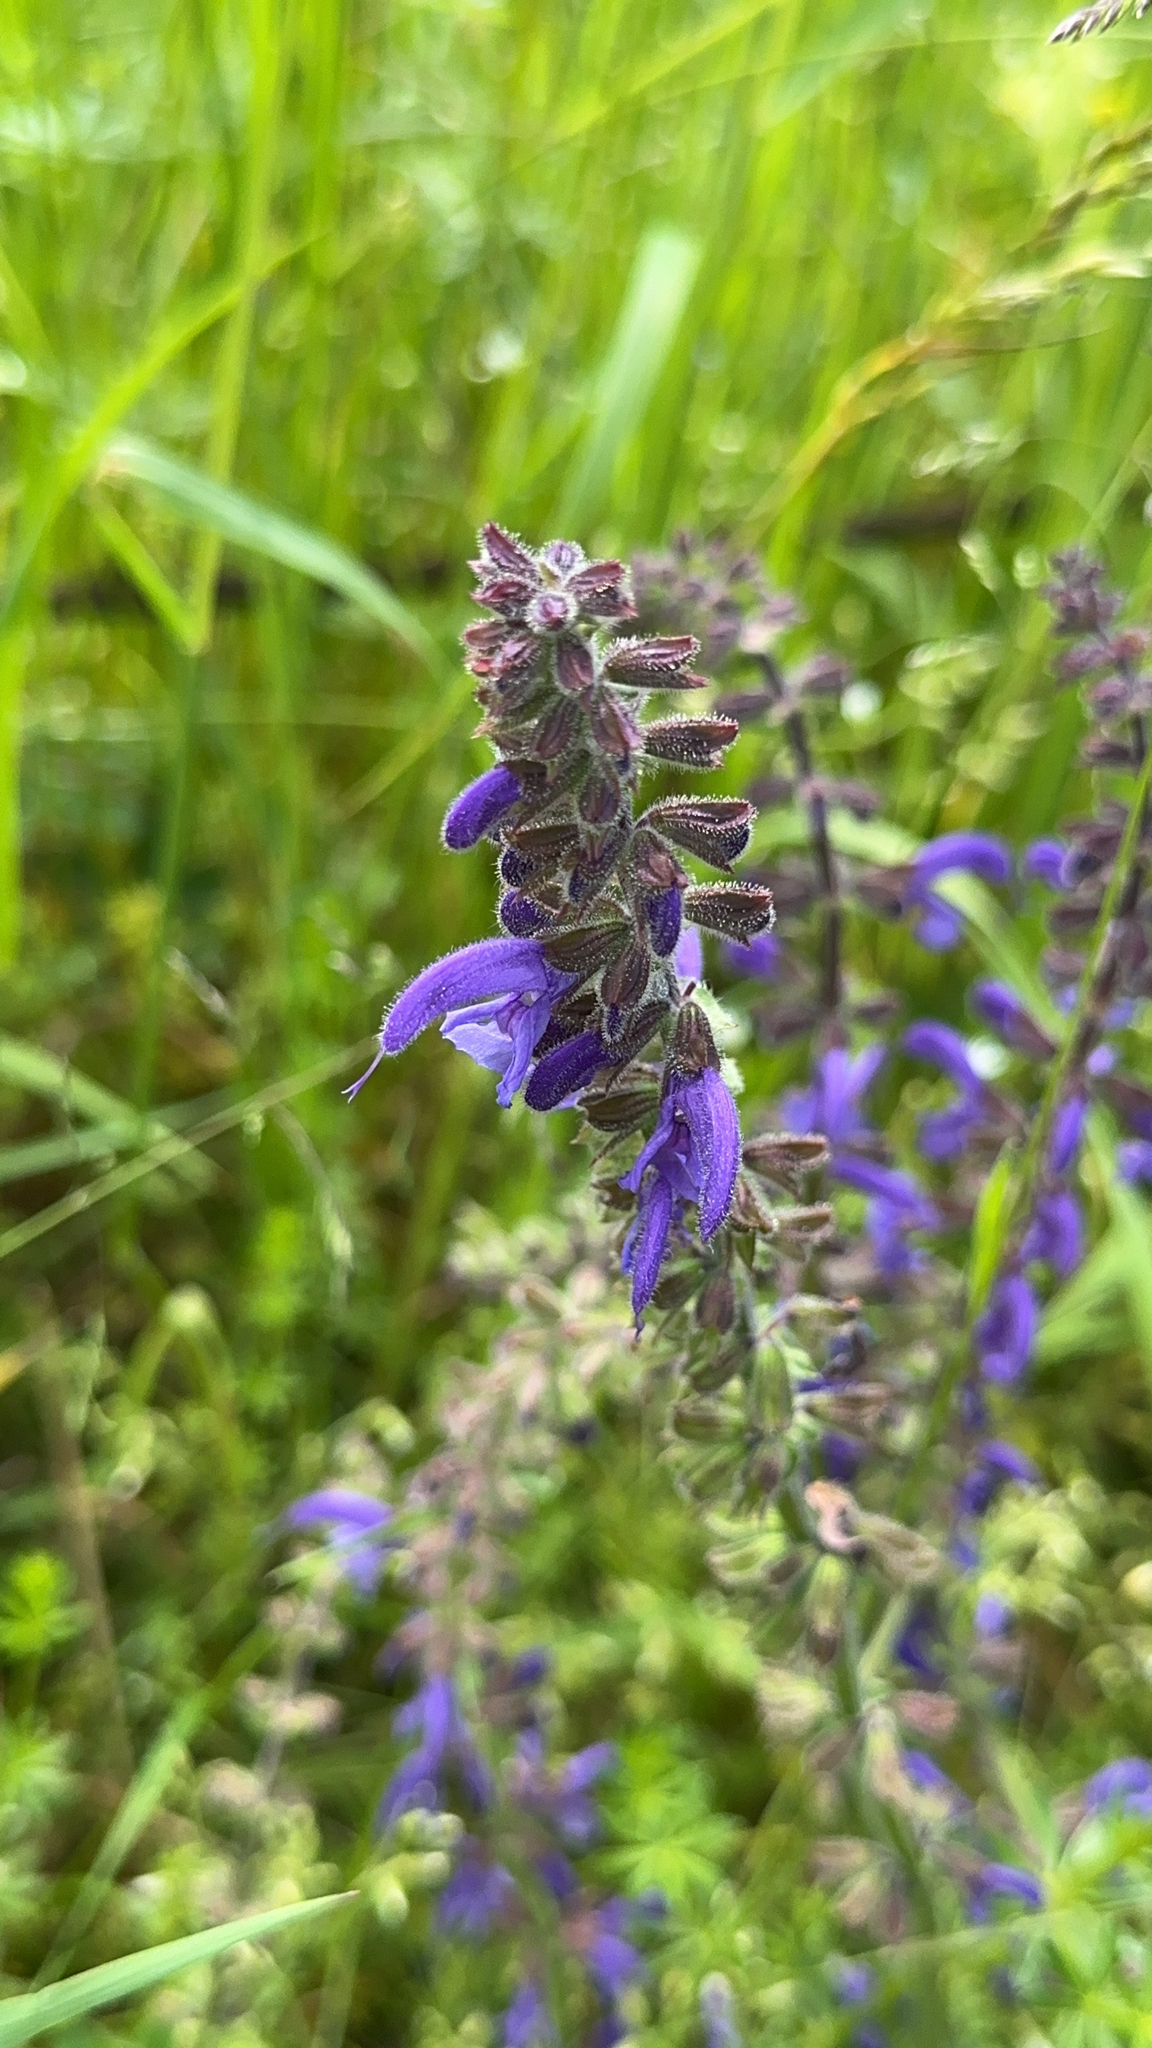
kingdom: Plantae
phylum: Tracheophyta
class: Magnoliopsida
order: Lamiales
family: Lamiaceae
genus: Salvia
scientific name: Salvia pratensis
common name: Meadow sage
